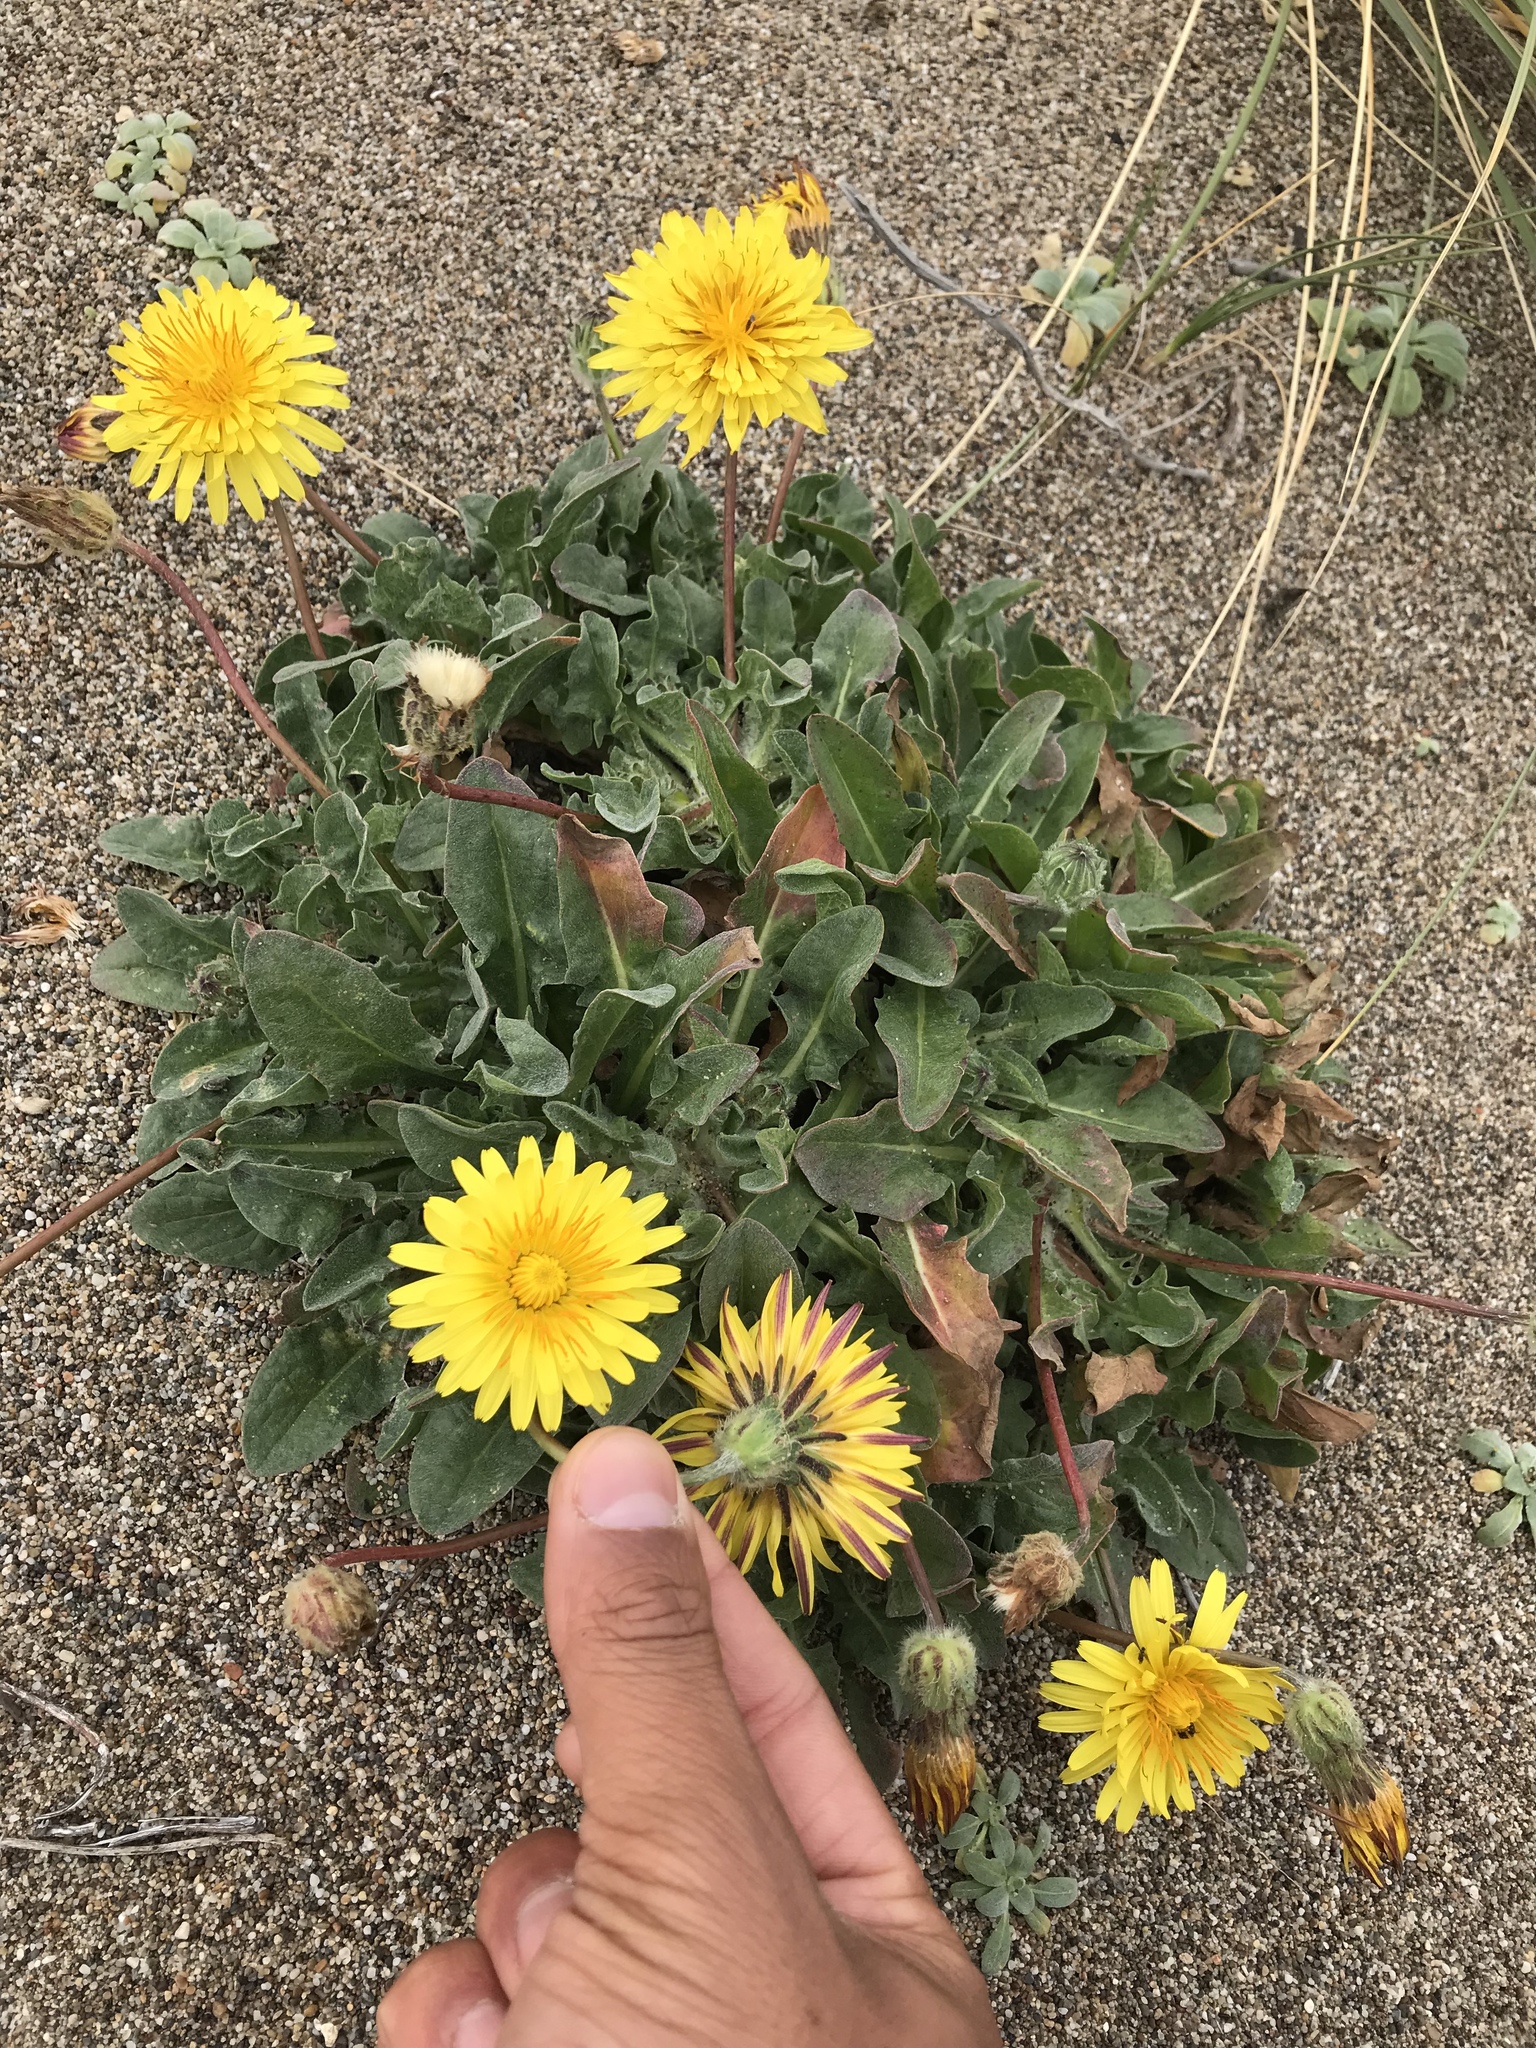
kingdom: Plantae
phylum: Tracheophyta
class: Magnoliopsida
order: Asterales
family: Asteraceae
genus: Agoseris
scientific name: Agoseris apargioides
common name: Point reyes agoseris
